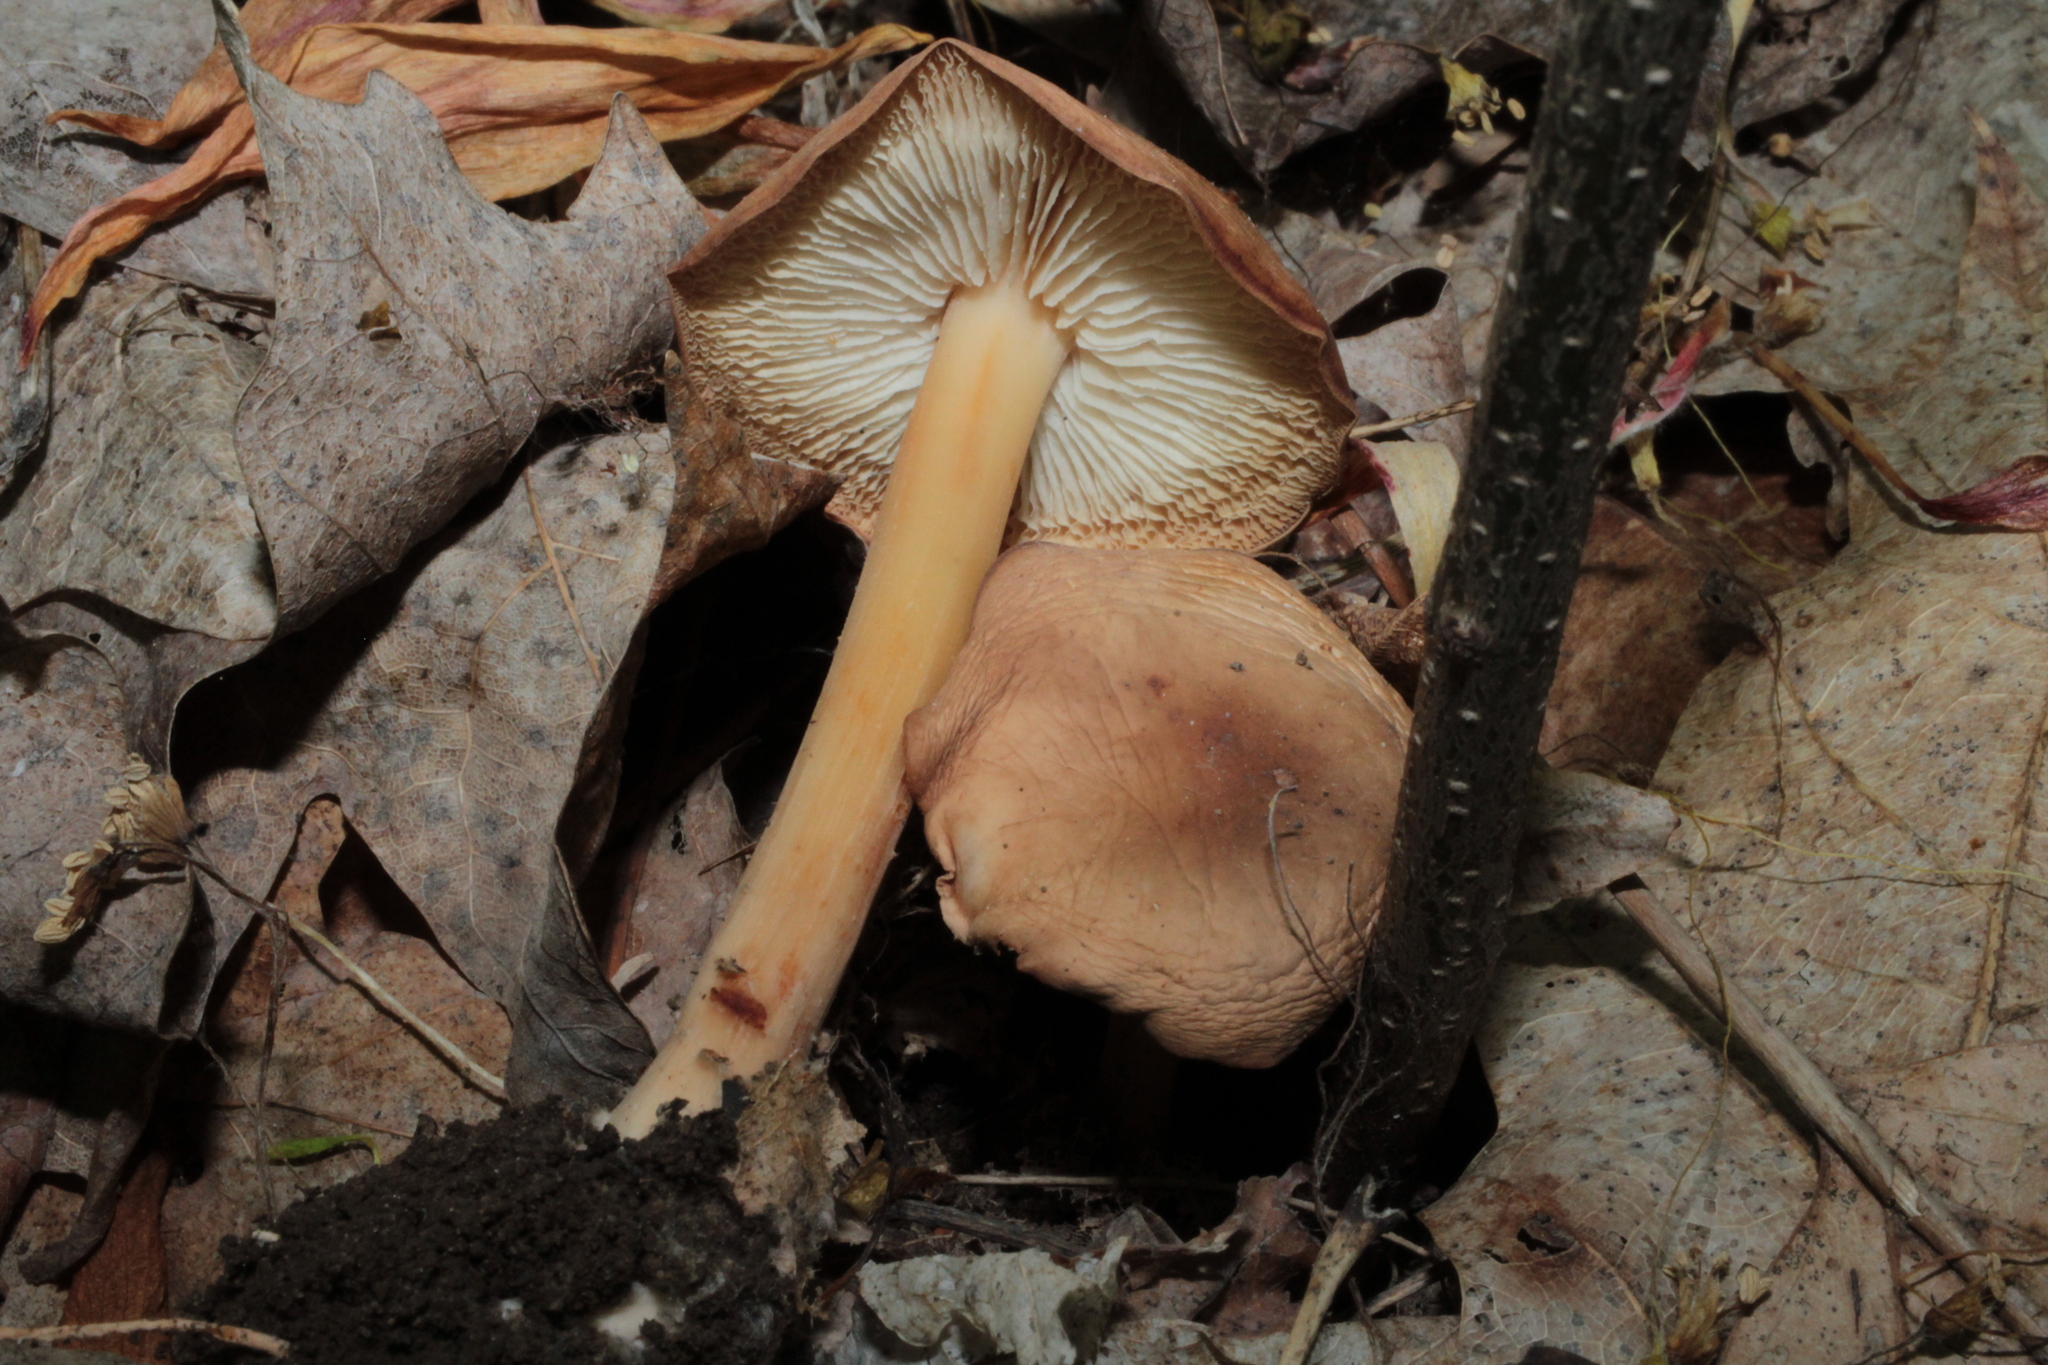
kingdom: Fungi
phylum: Basidiomycota
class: Agaricomycetes
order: Agaricales
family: Omphalotaceae
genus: Gymnopus
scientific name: Gymnopus subsulphureus
